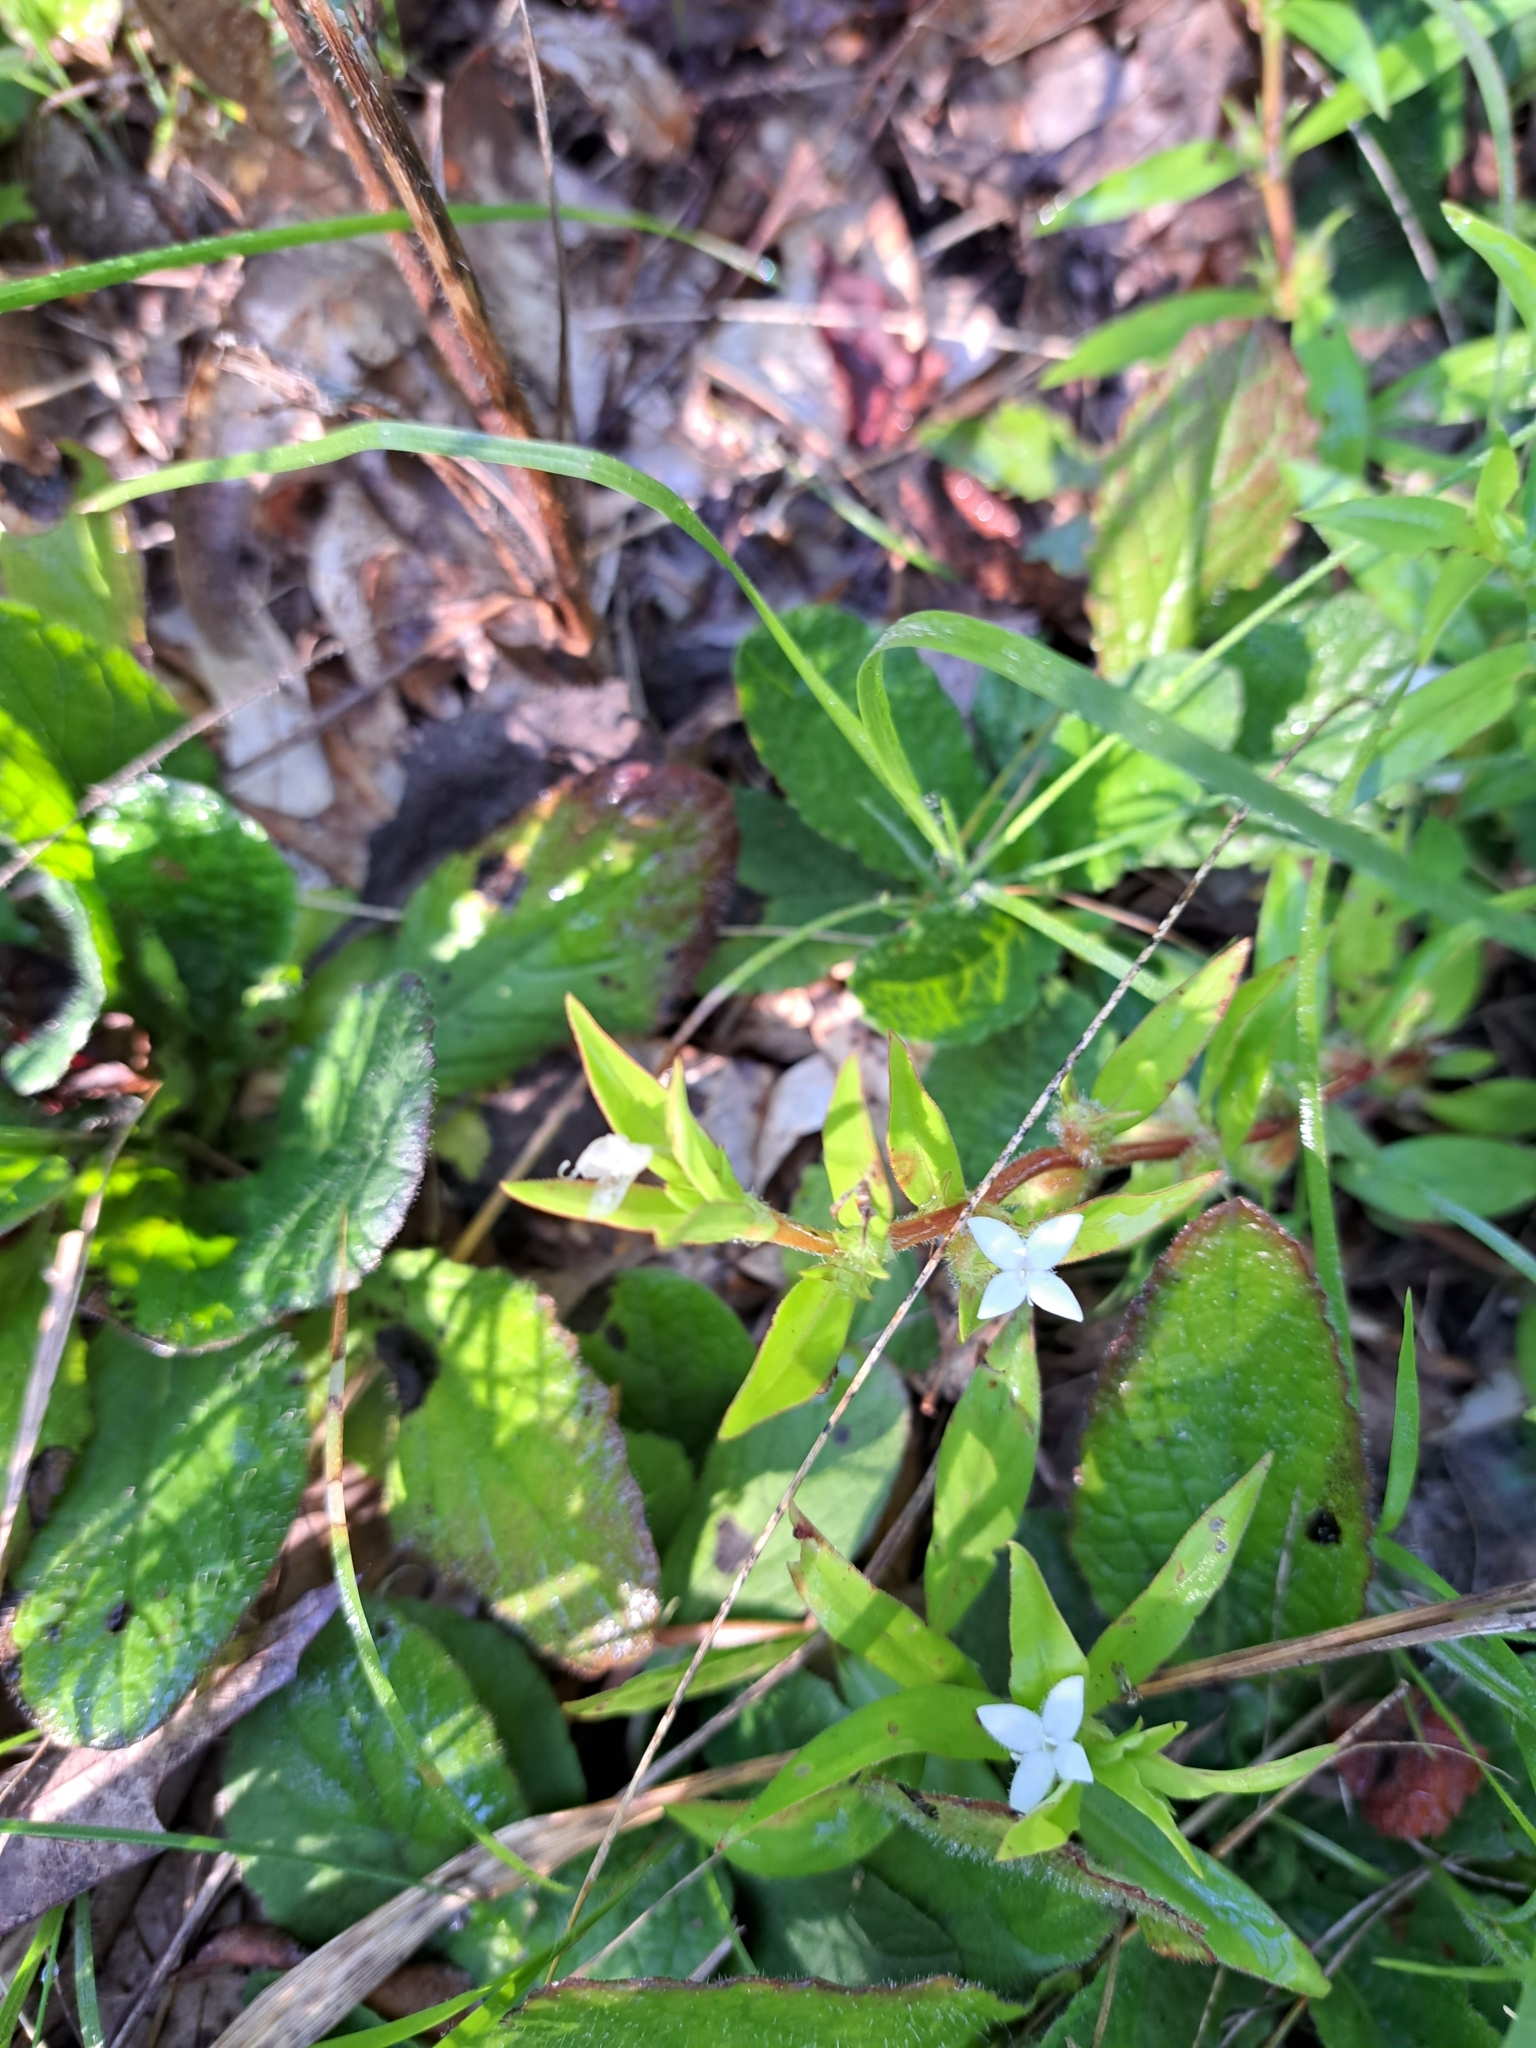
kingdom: Plantae
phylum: Tracheophyta
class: Magnoliopsida
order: Gentianales
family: Rubiaceae
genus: Diodia
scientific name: Diodia virginiana
